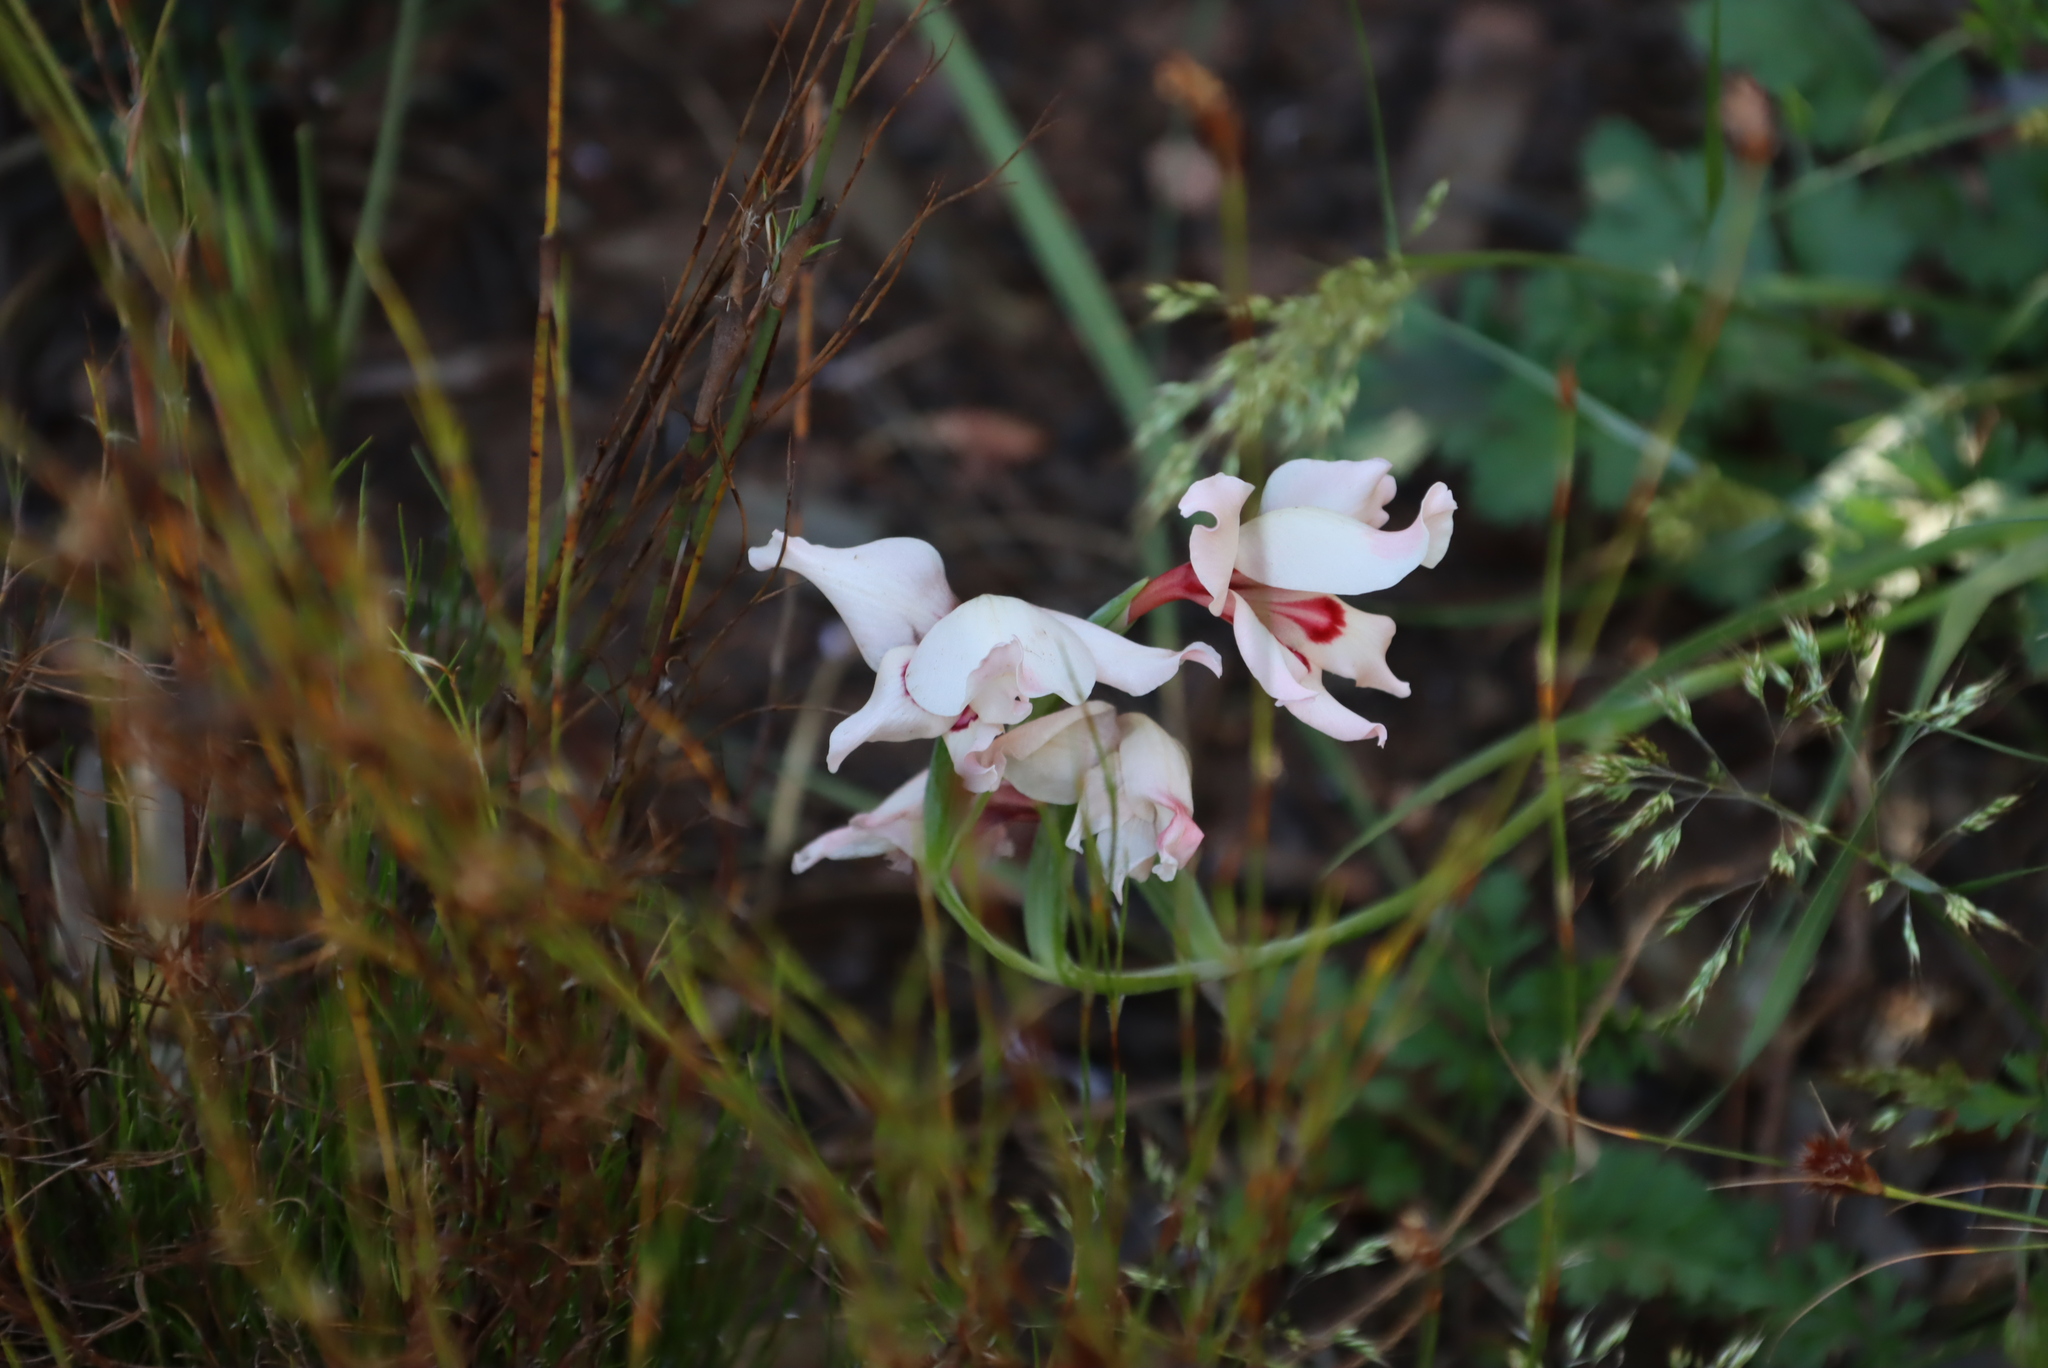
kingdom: Plantae
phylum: Tracheophyta
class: Liliopsida
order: Asparagales
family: Iridaceae
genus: Gladiolus
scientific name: Gladiolus carneus
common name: Painted-lady
